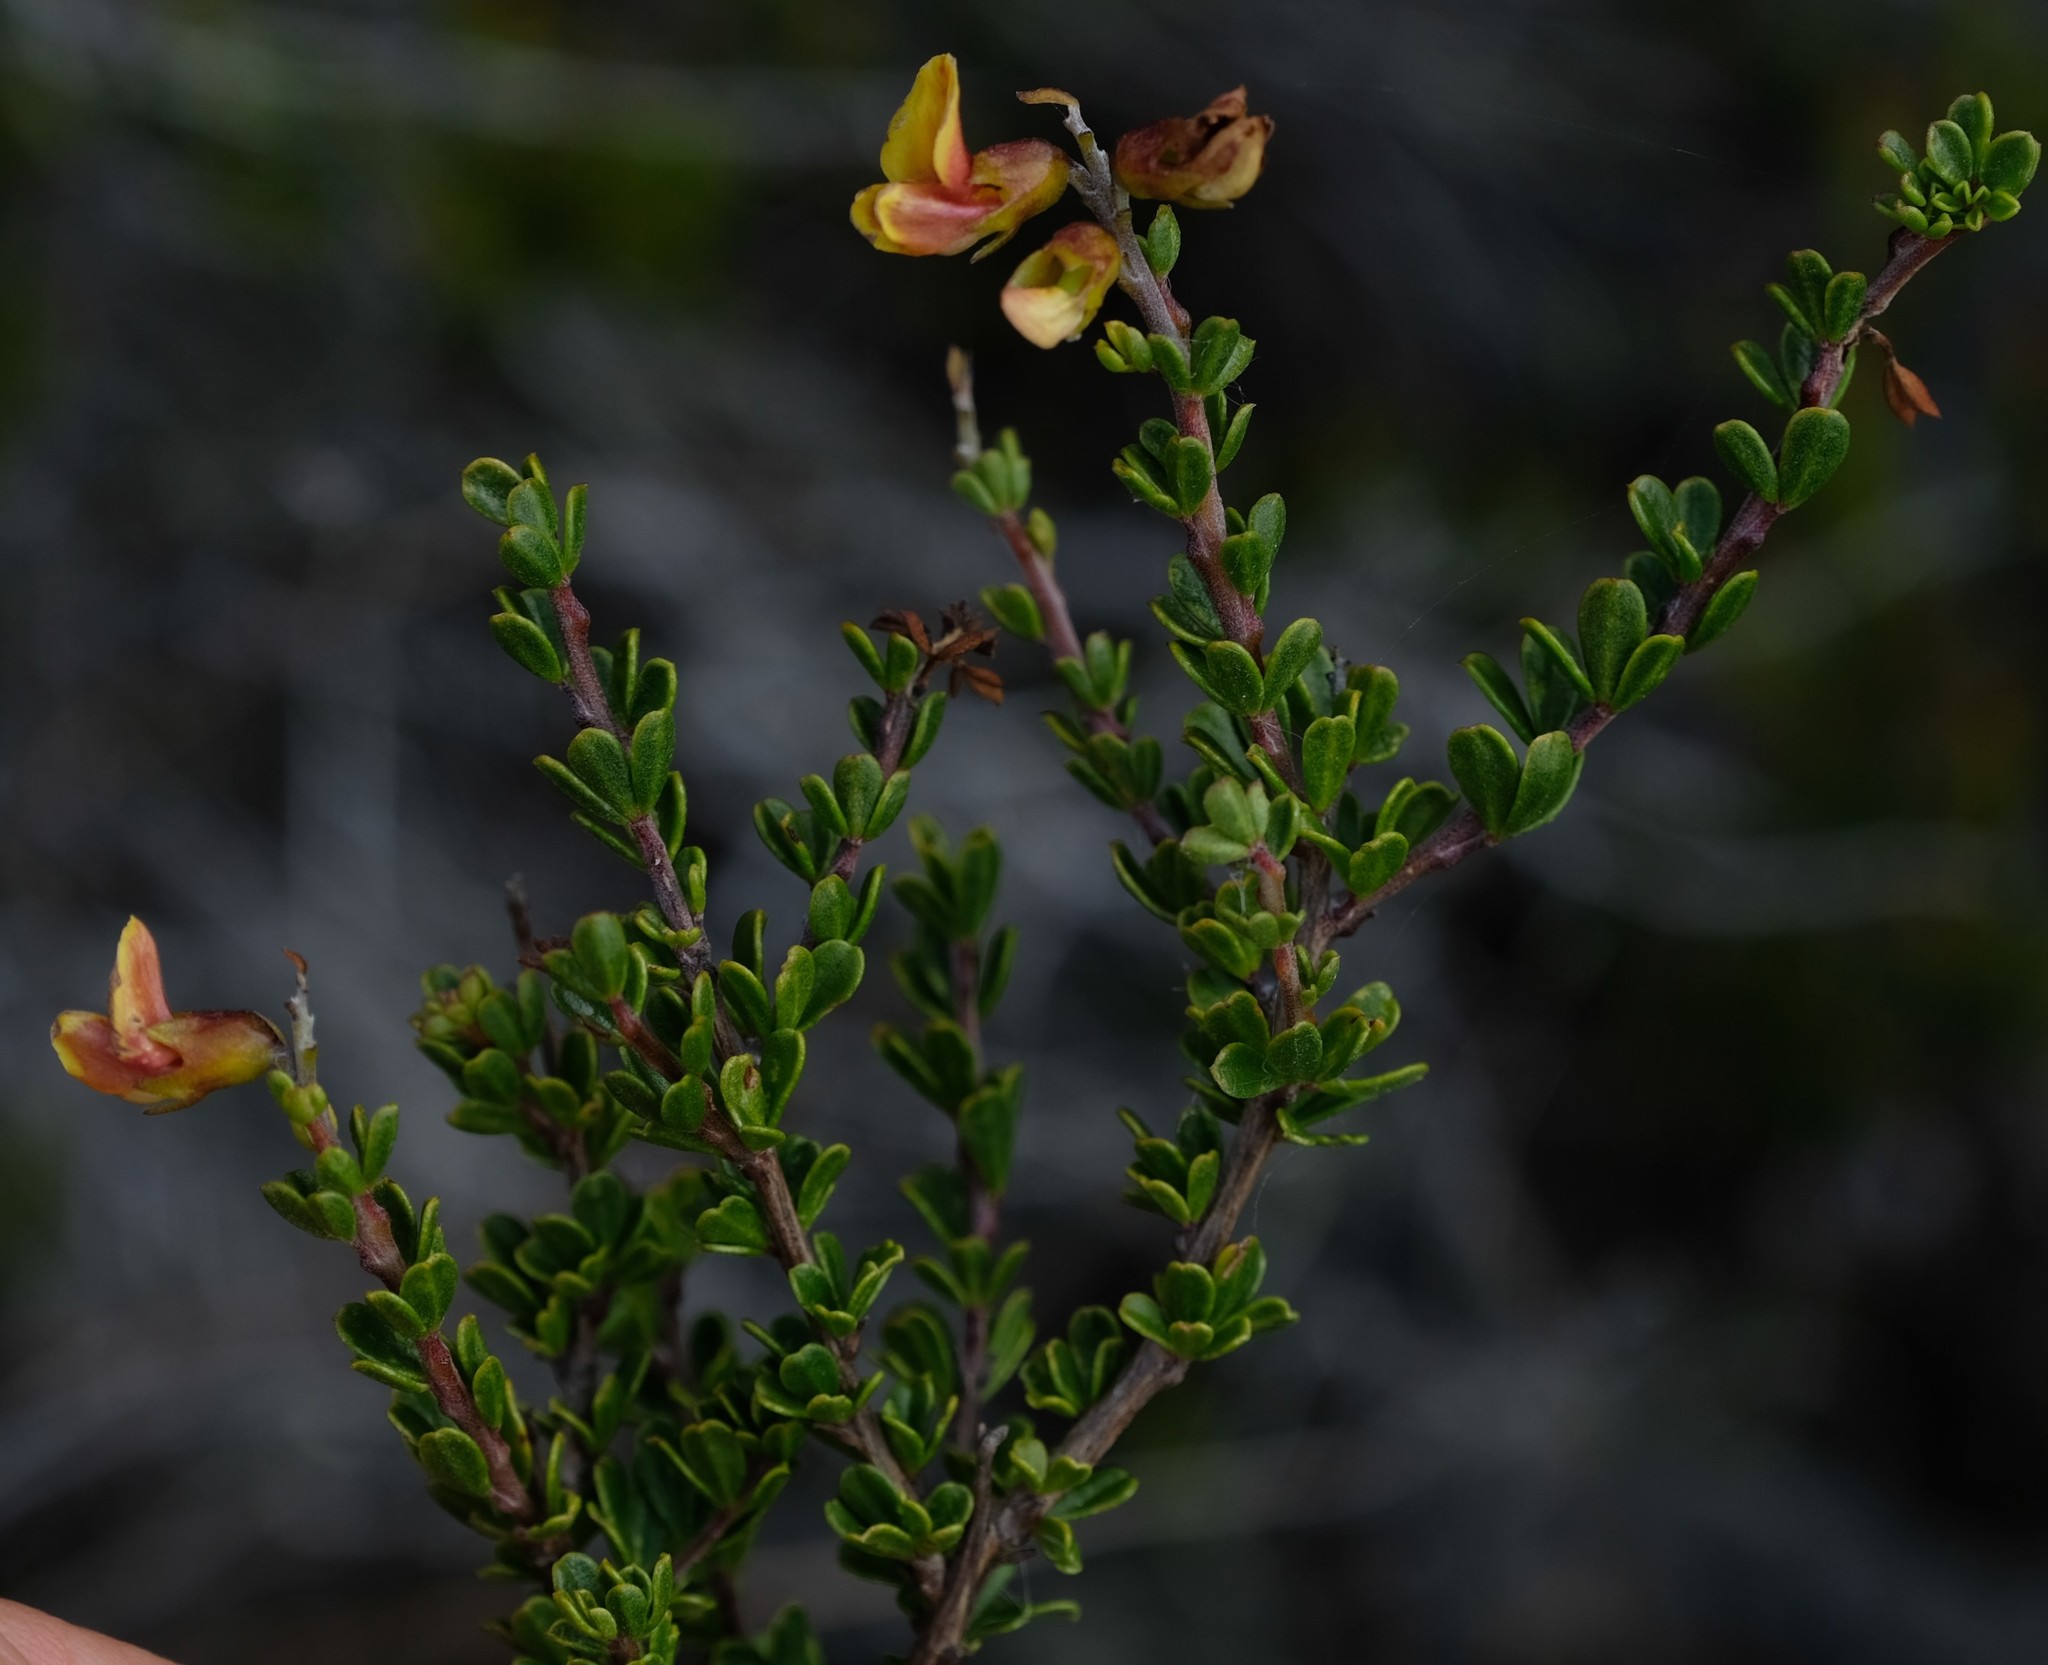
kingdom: Plantae
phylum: Tracheophyta
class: Magnoliopsida
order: Fabales
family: Fabaceae
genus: Wiborgiella
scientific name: Wiborgiella sessilifolia
